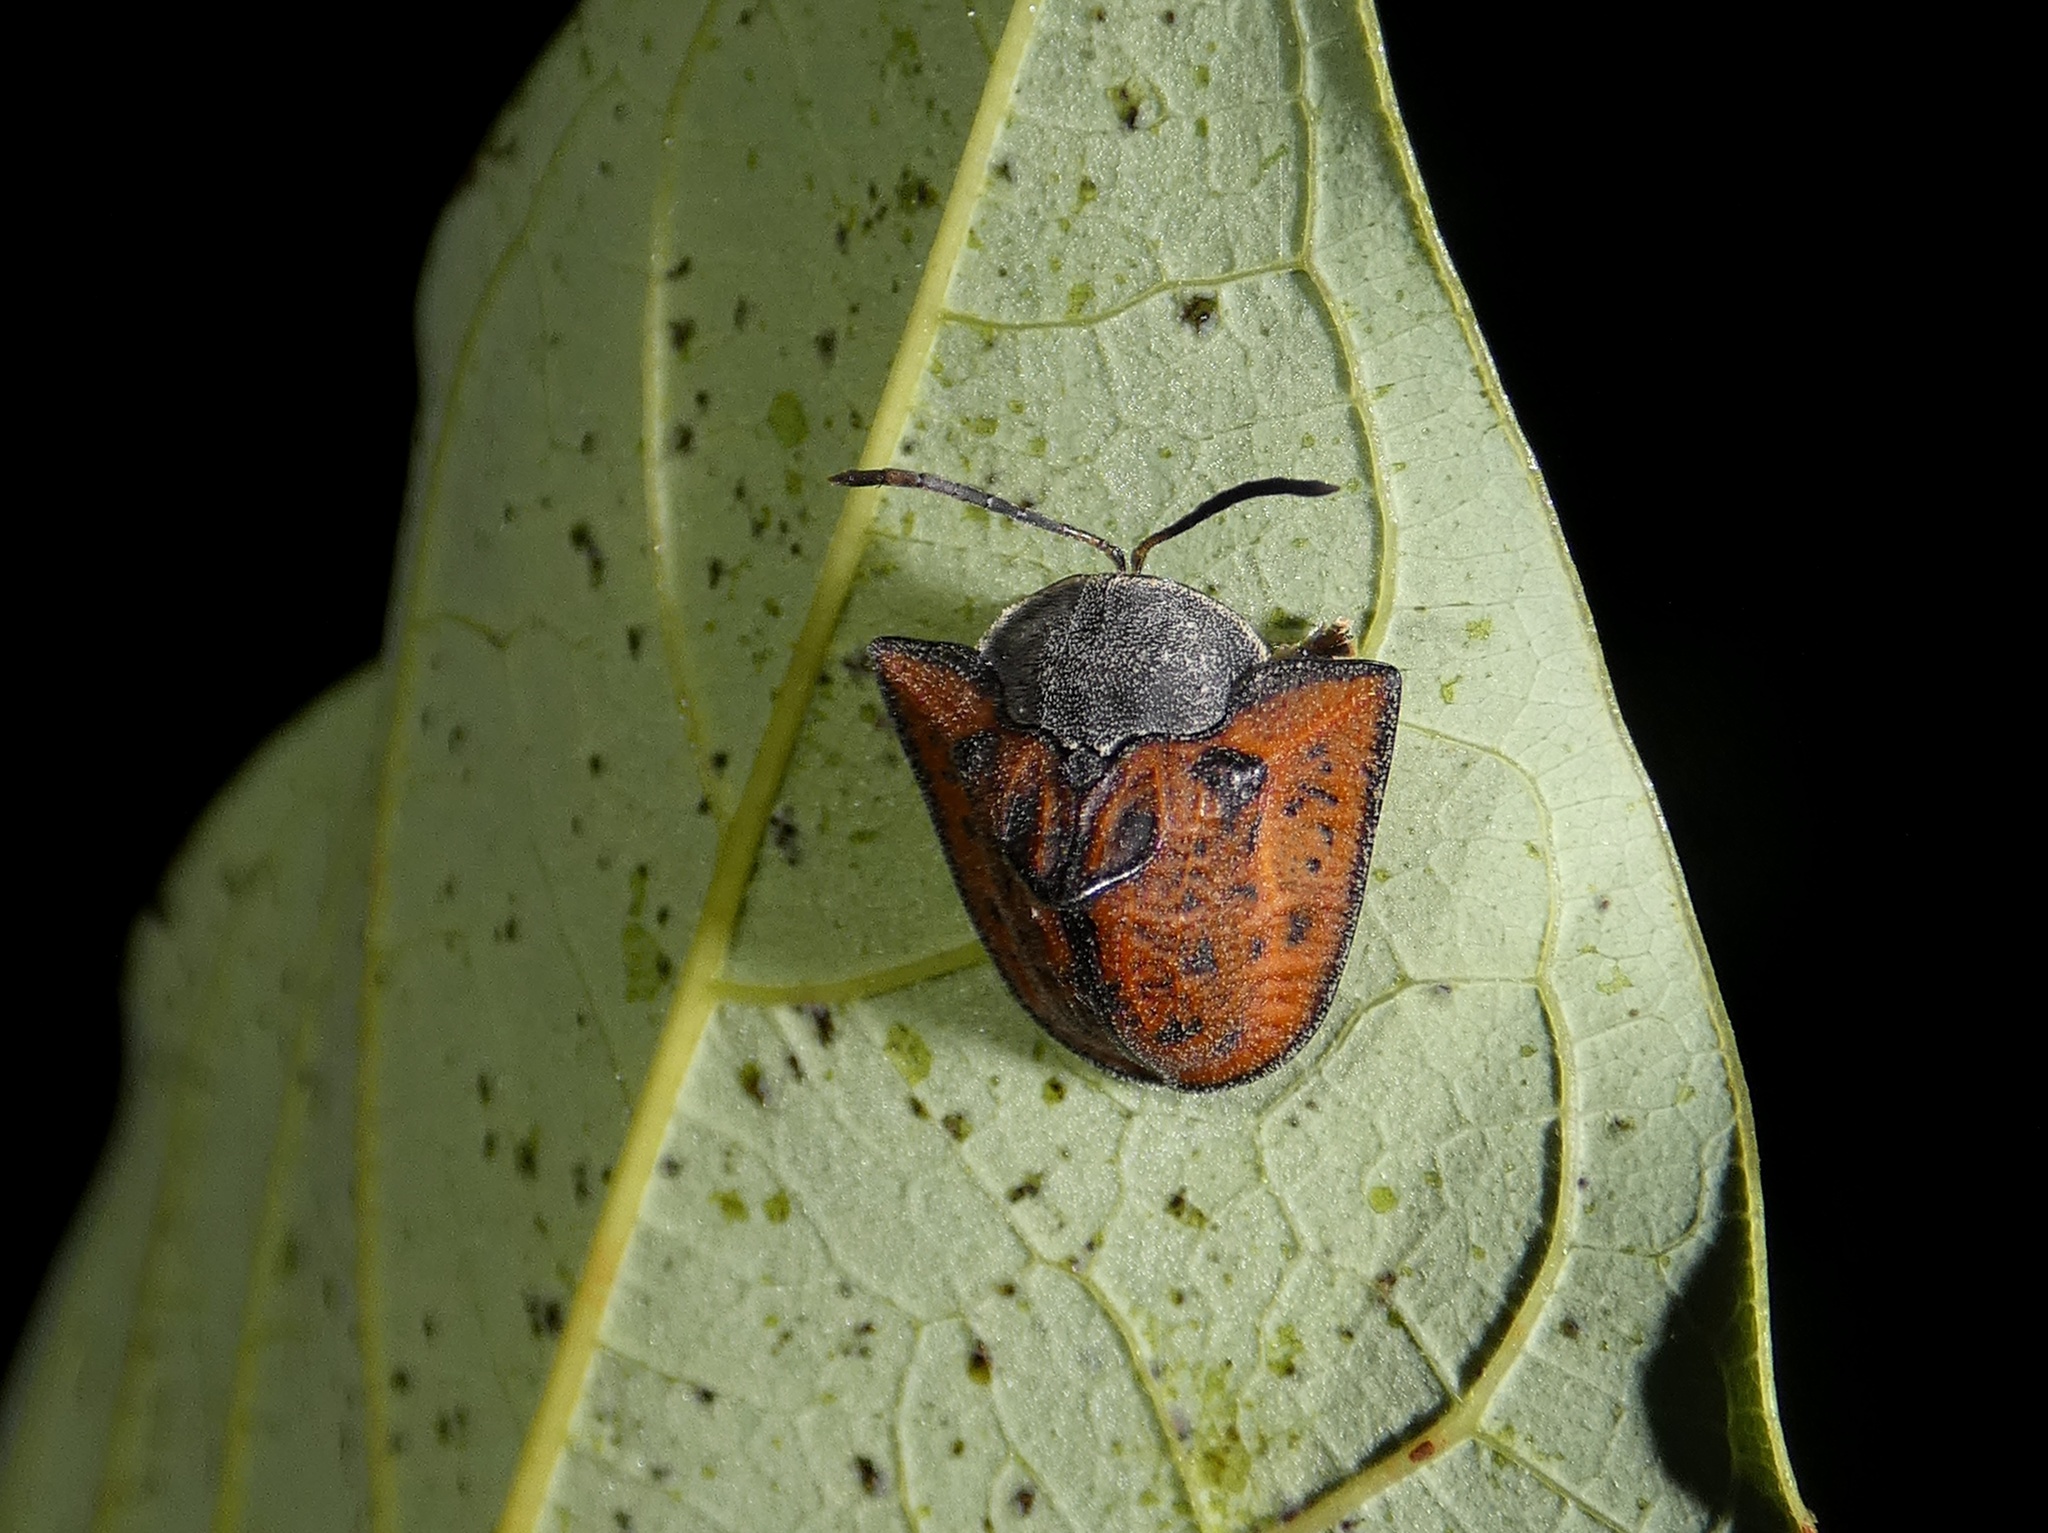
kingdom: Animalia
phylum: Arthropoda
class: Insecta
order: Coleoptera
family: Chrysomelidae
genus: Dorynota
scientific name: Dorynota insidiosa
